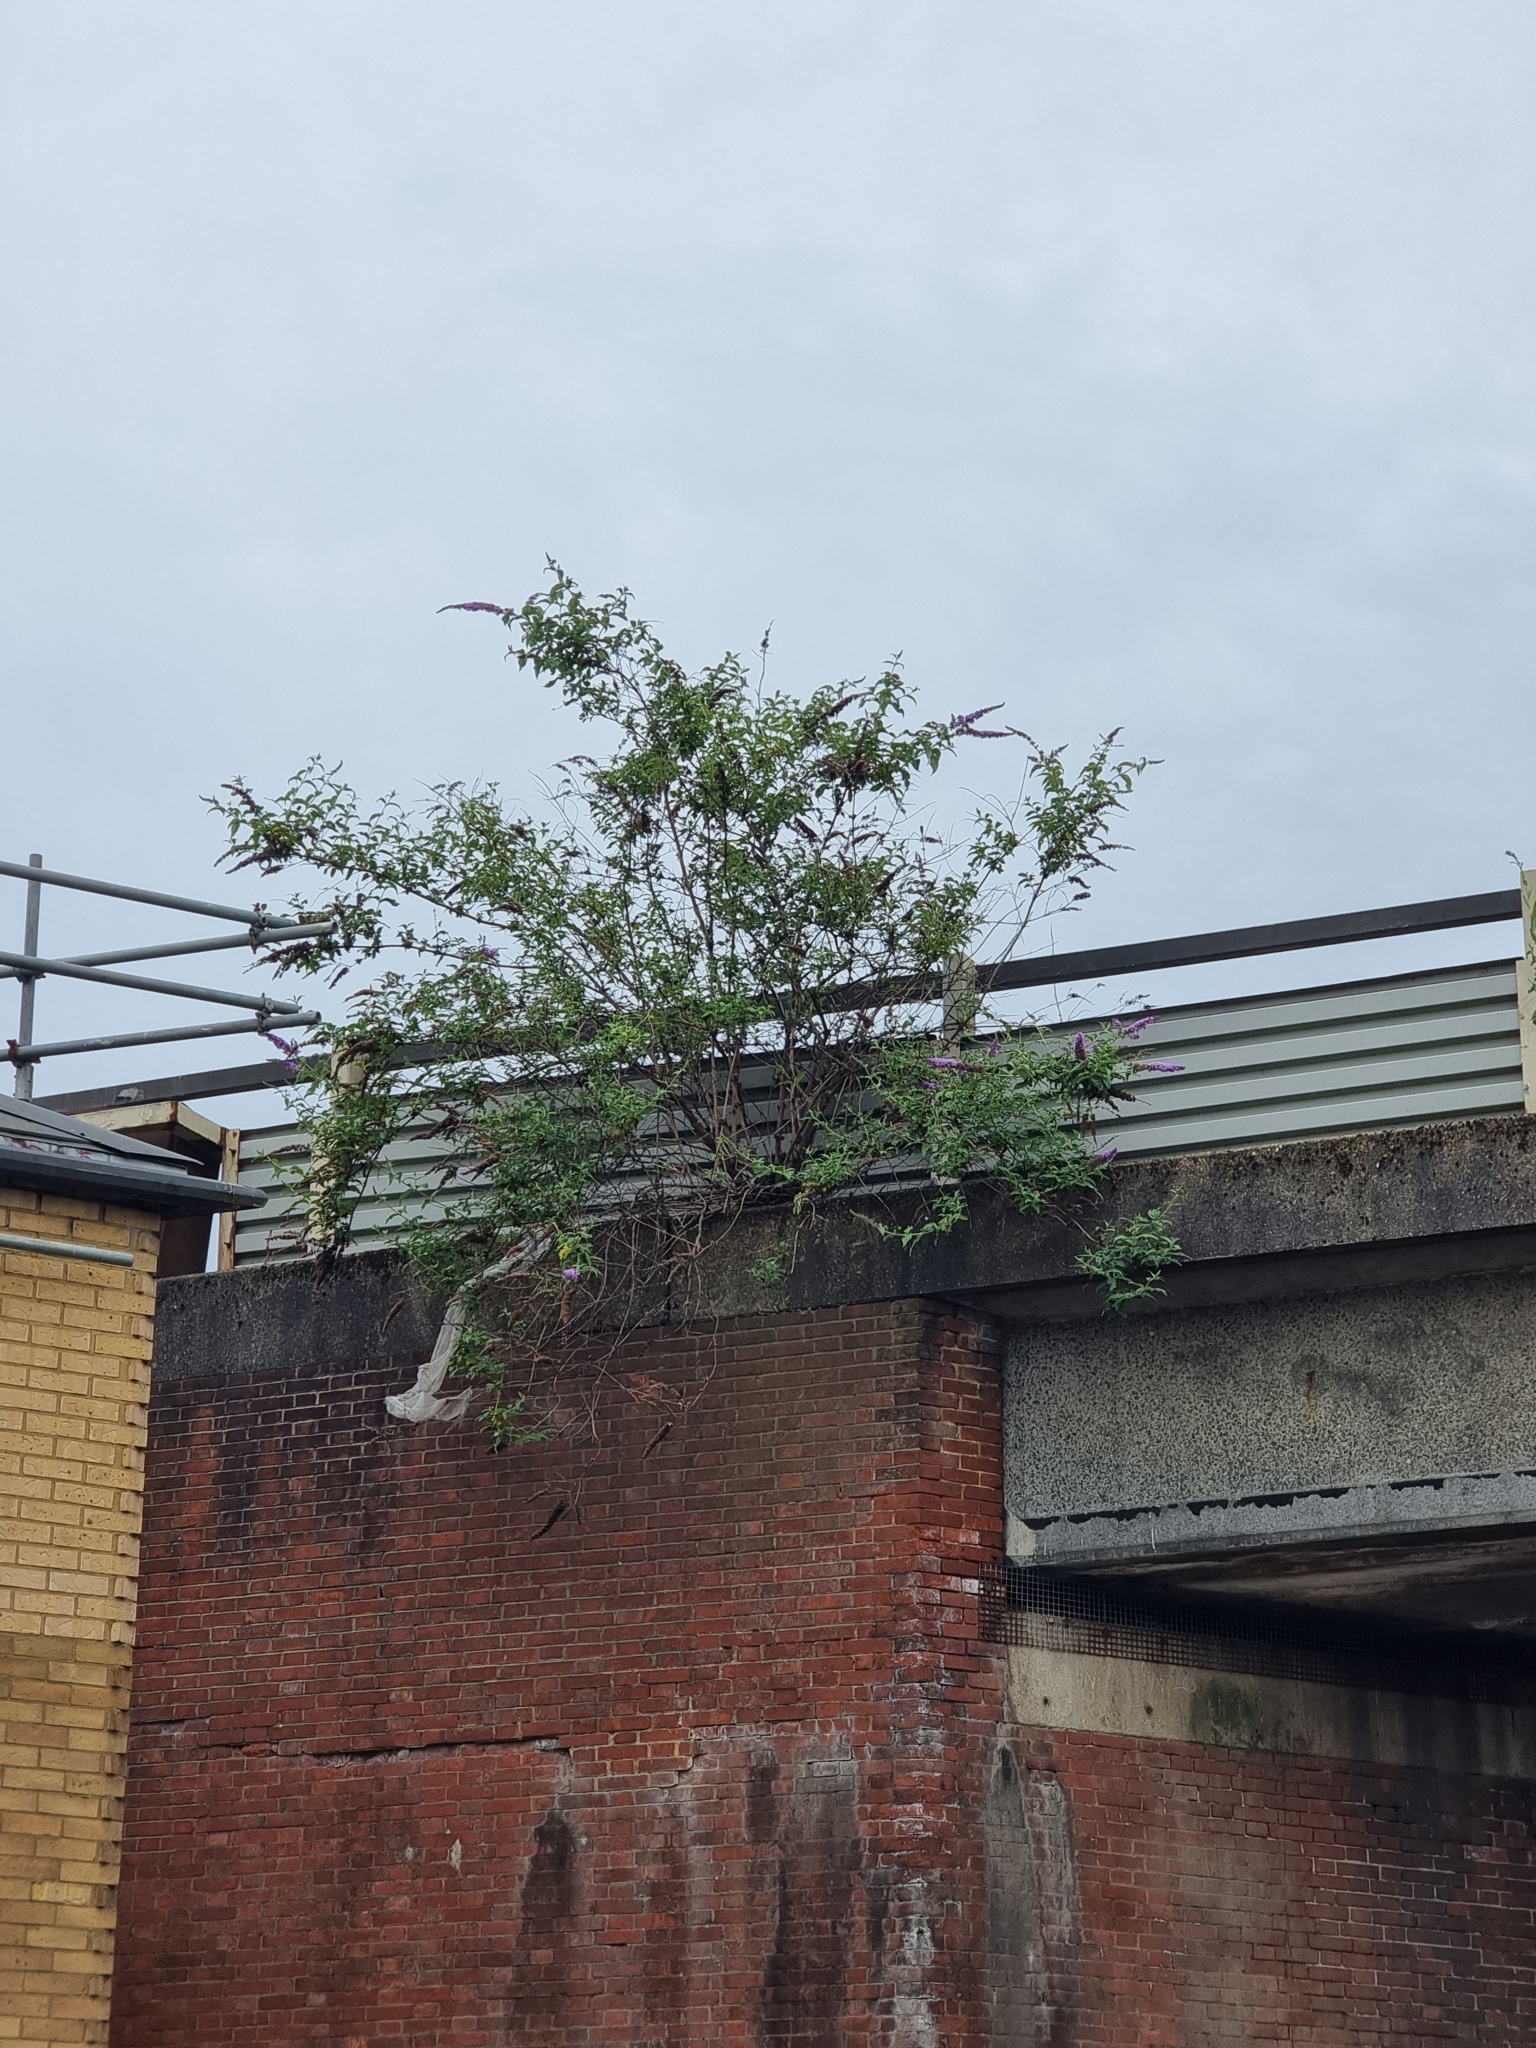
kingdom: Plantae
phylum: Tracheophyta
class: Magnoliopsida
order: Lamiales
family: Scrophulariaceae
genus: Buddleja
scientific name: Buddleja davidii
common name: Butterfly-bush
